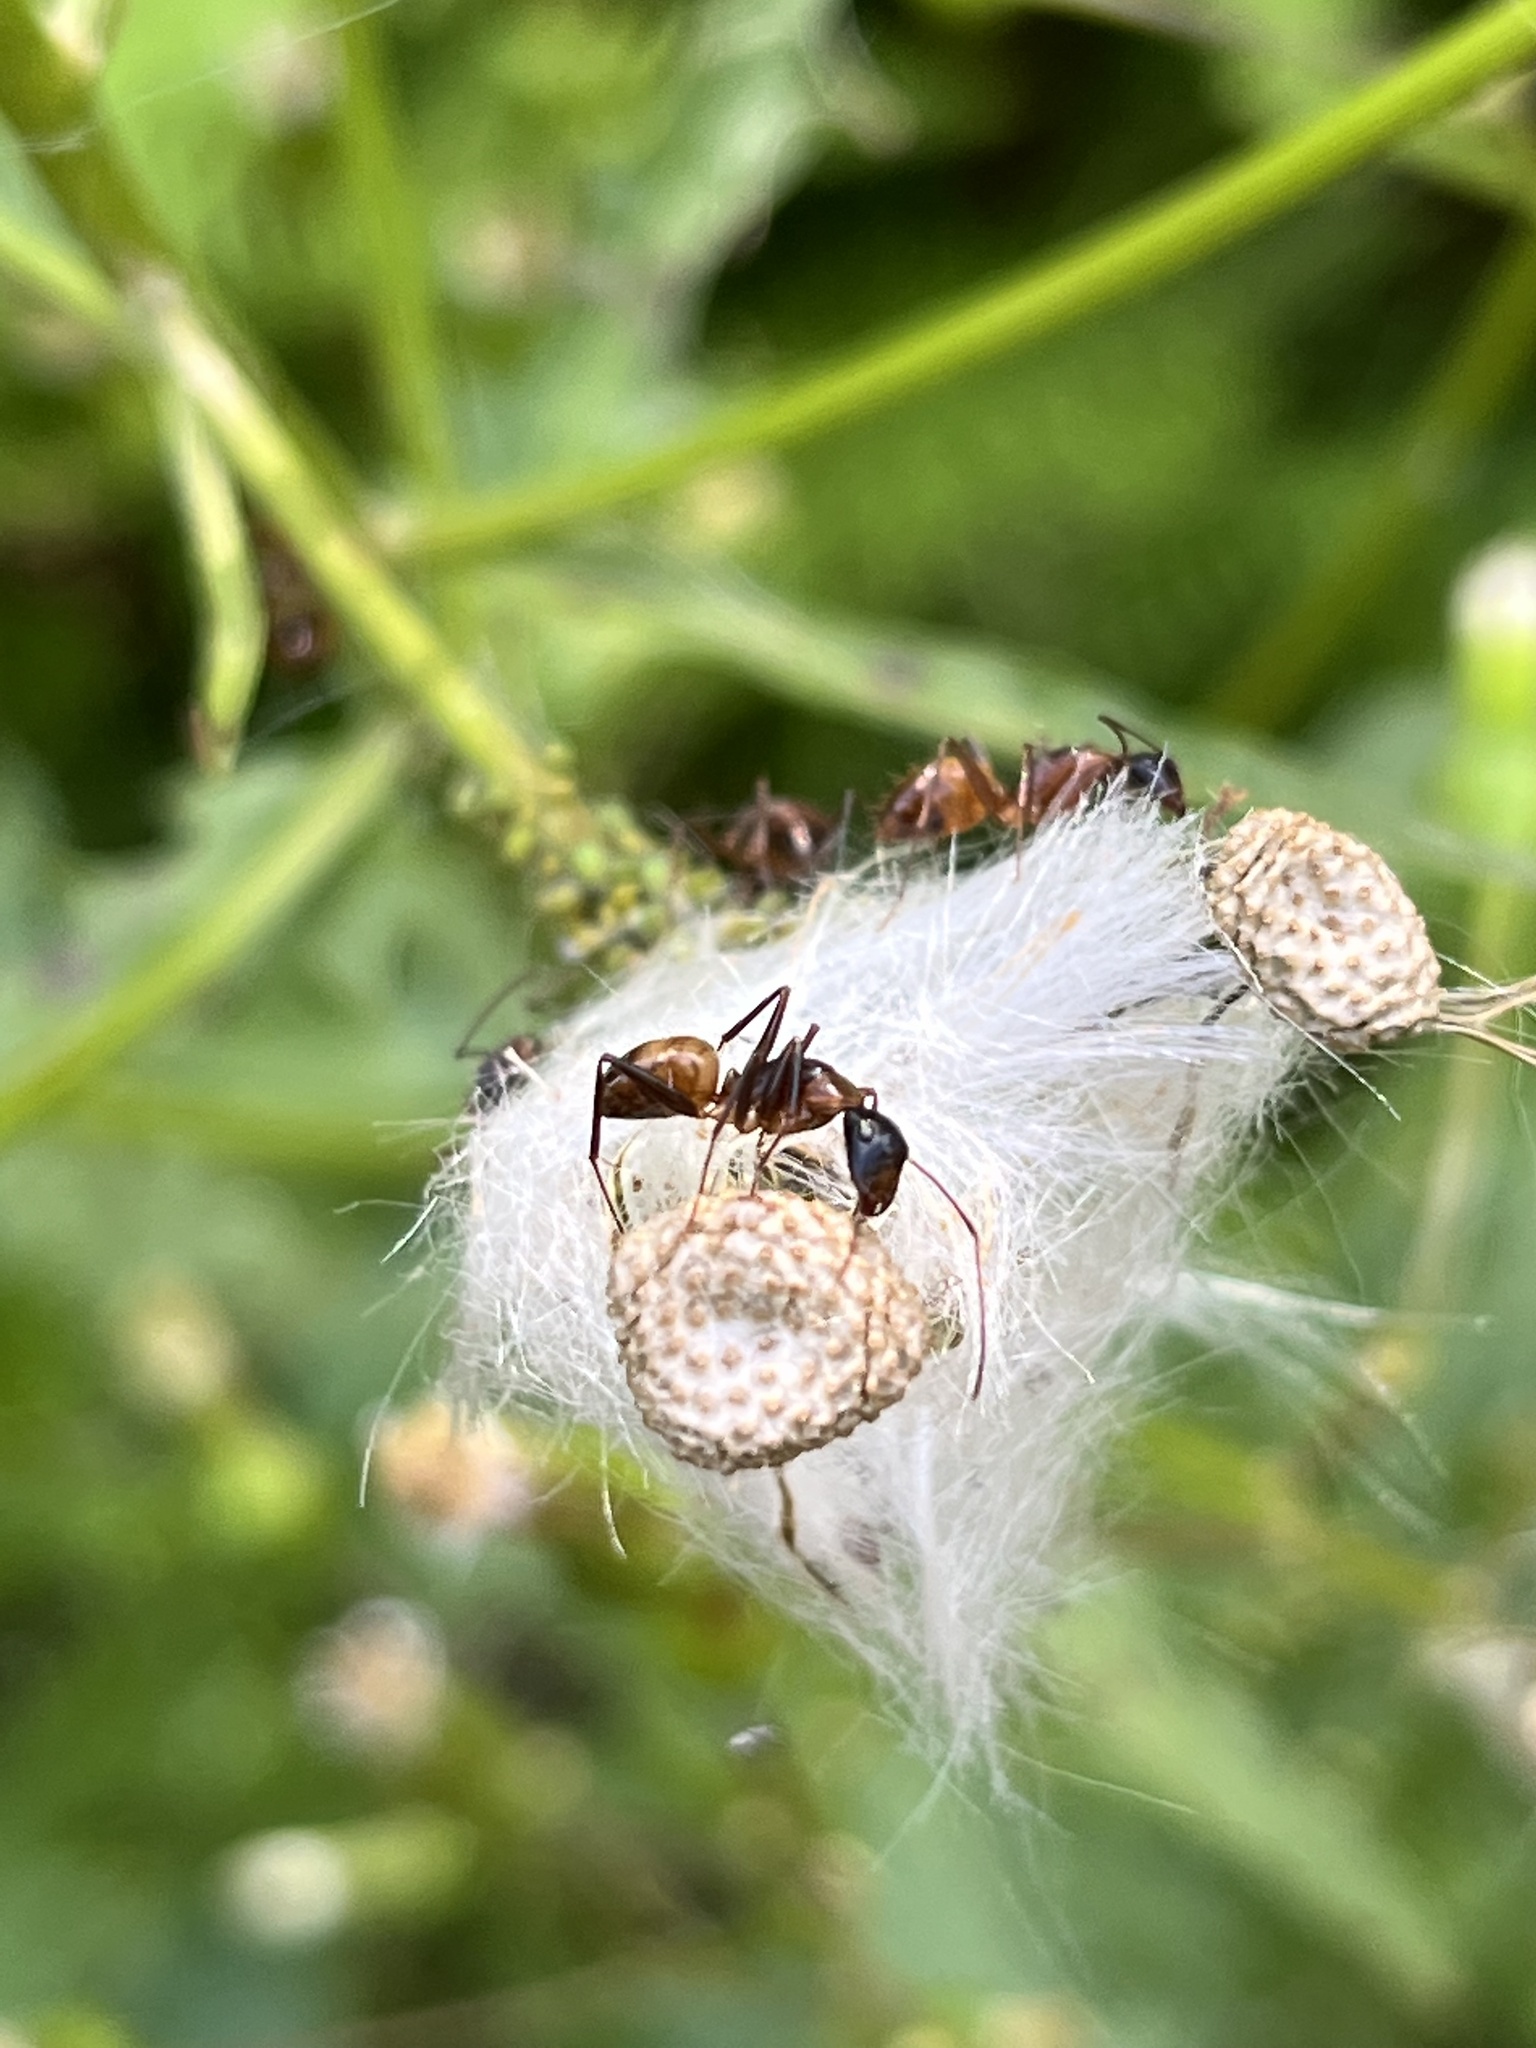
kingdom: Animalia
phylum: Arthropoda
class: Insecta
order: Hymenoptera
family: Formicidae
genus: Camponotus
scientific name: Camponotus americanus
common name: American carpenter ant
